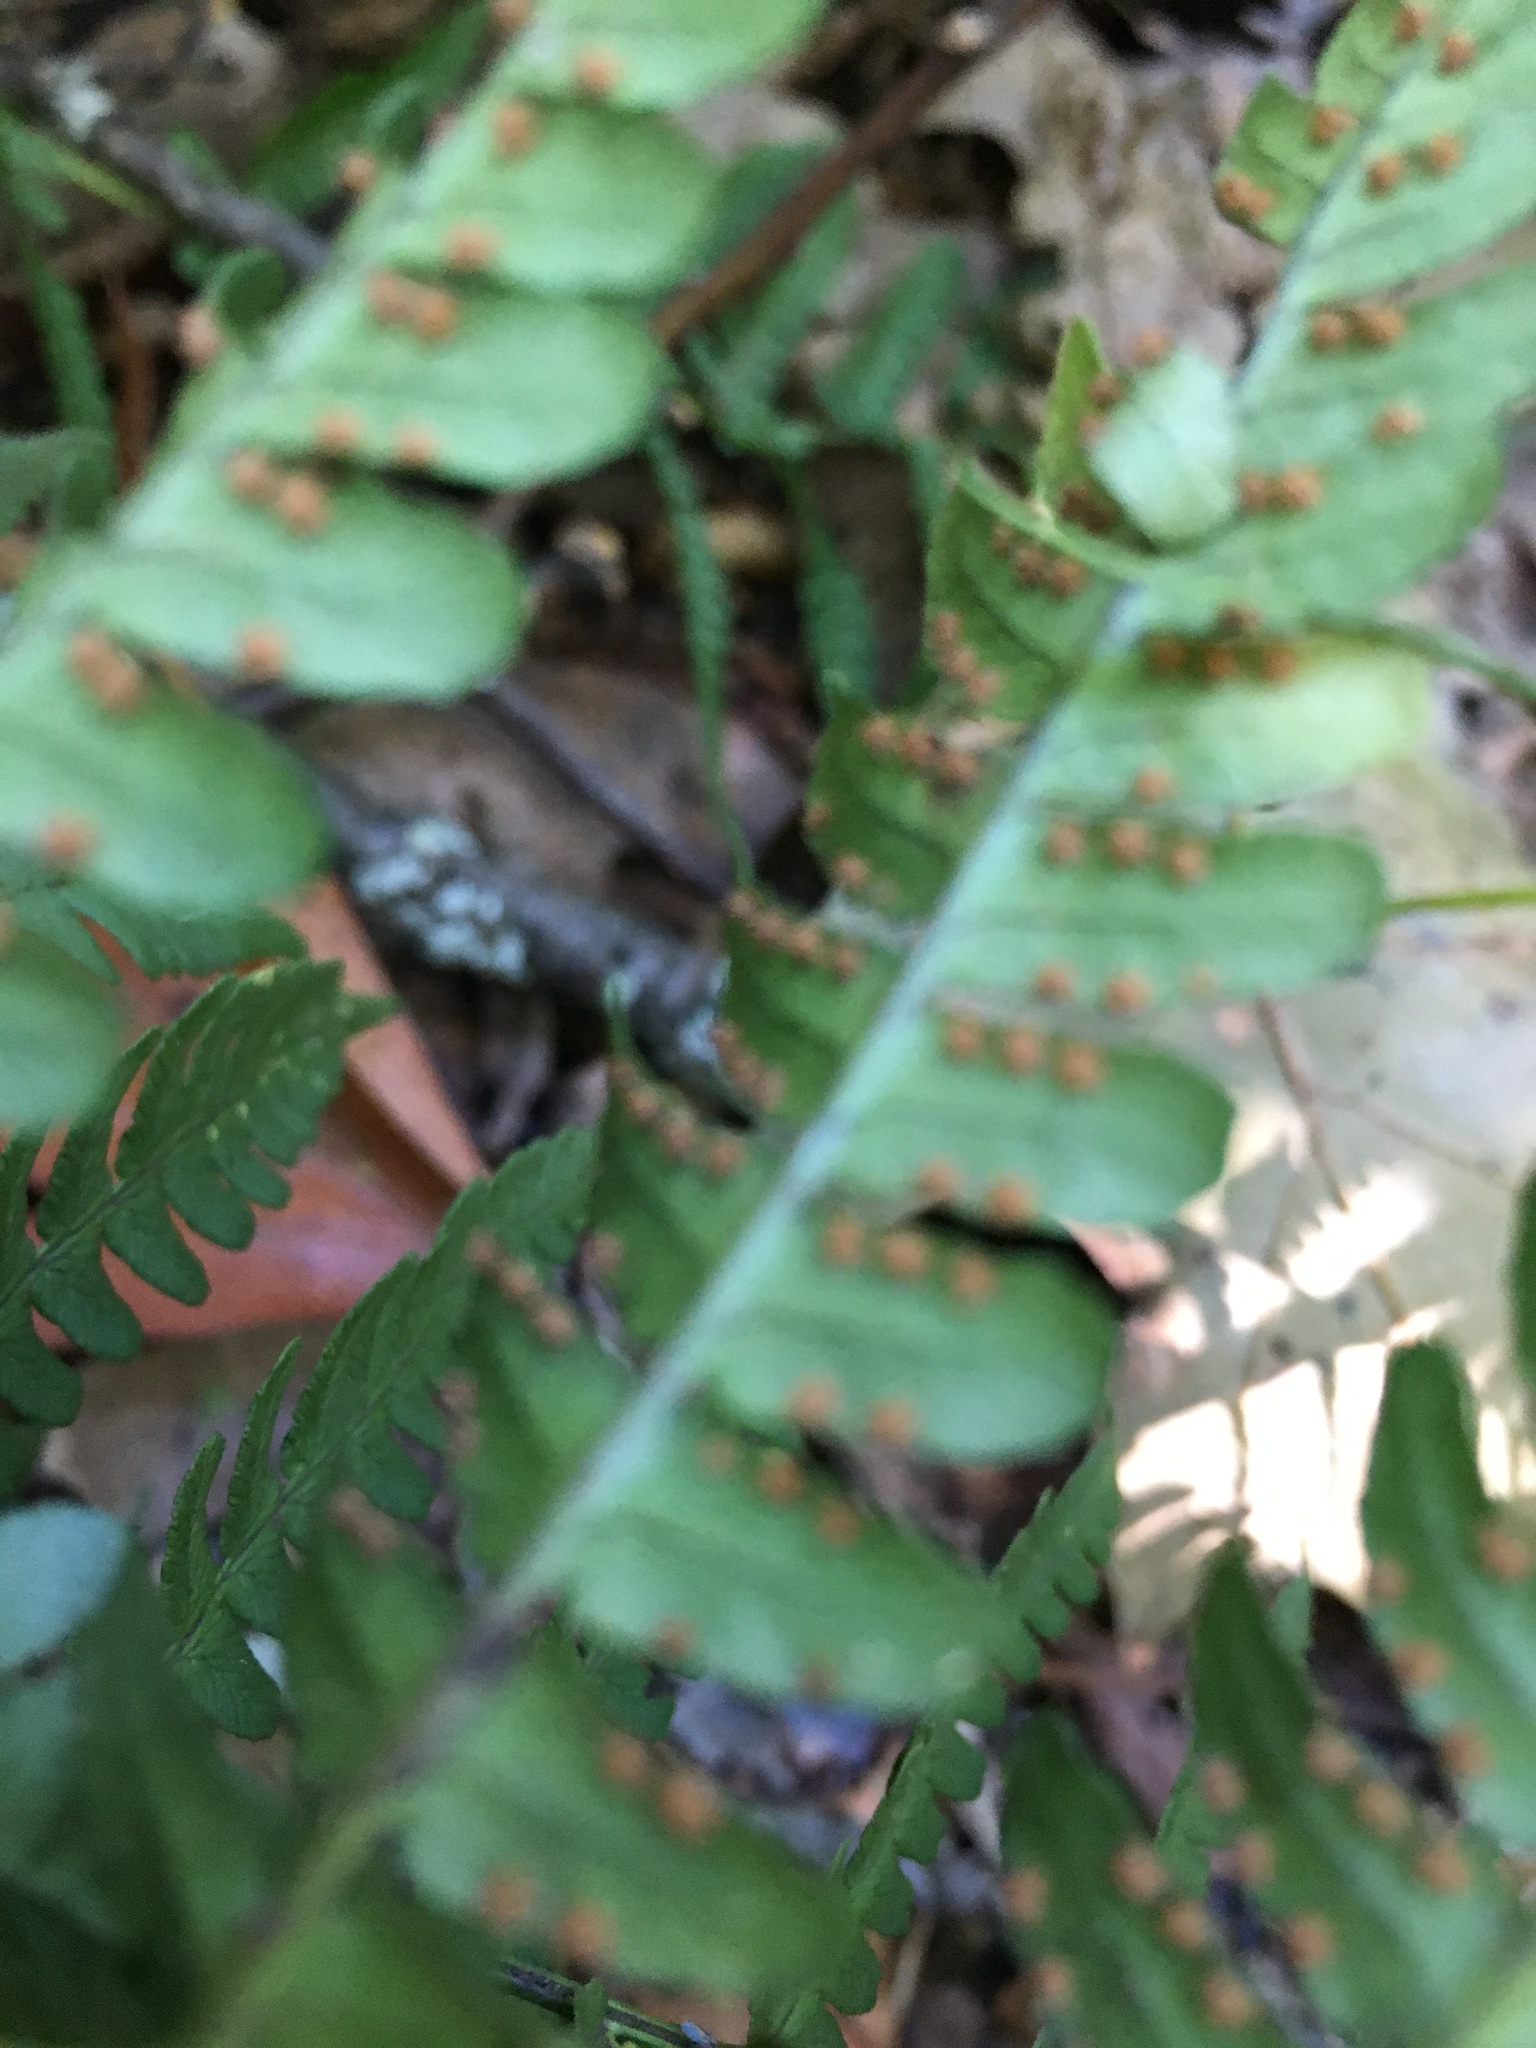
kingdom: Plantae
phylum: Tracheophyta
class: Polypodiopsida
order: Polypodiales
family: Dryopteridaceae
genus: Dryopteris
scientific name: Dryopteris marginalis
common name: Marginal wood fern
